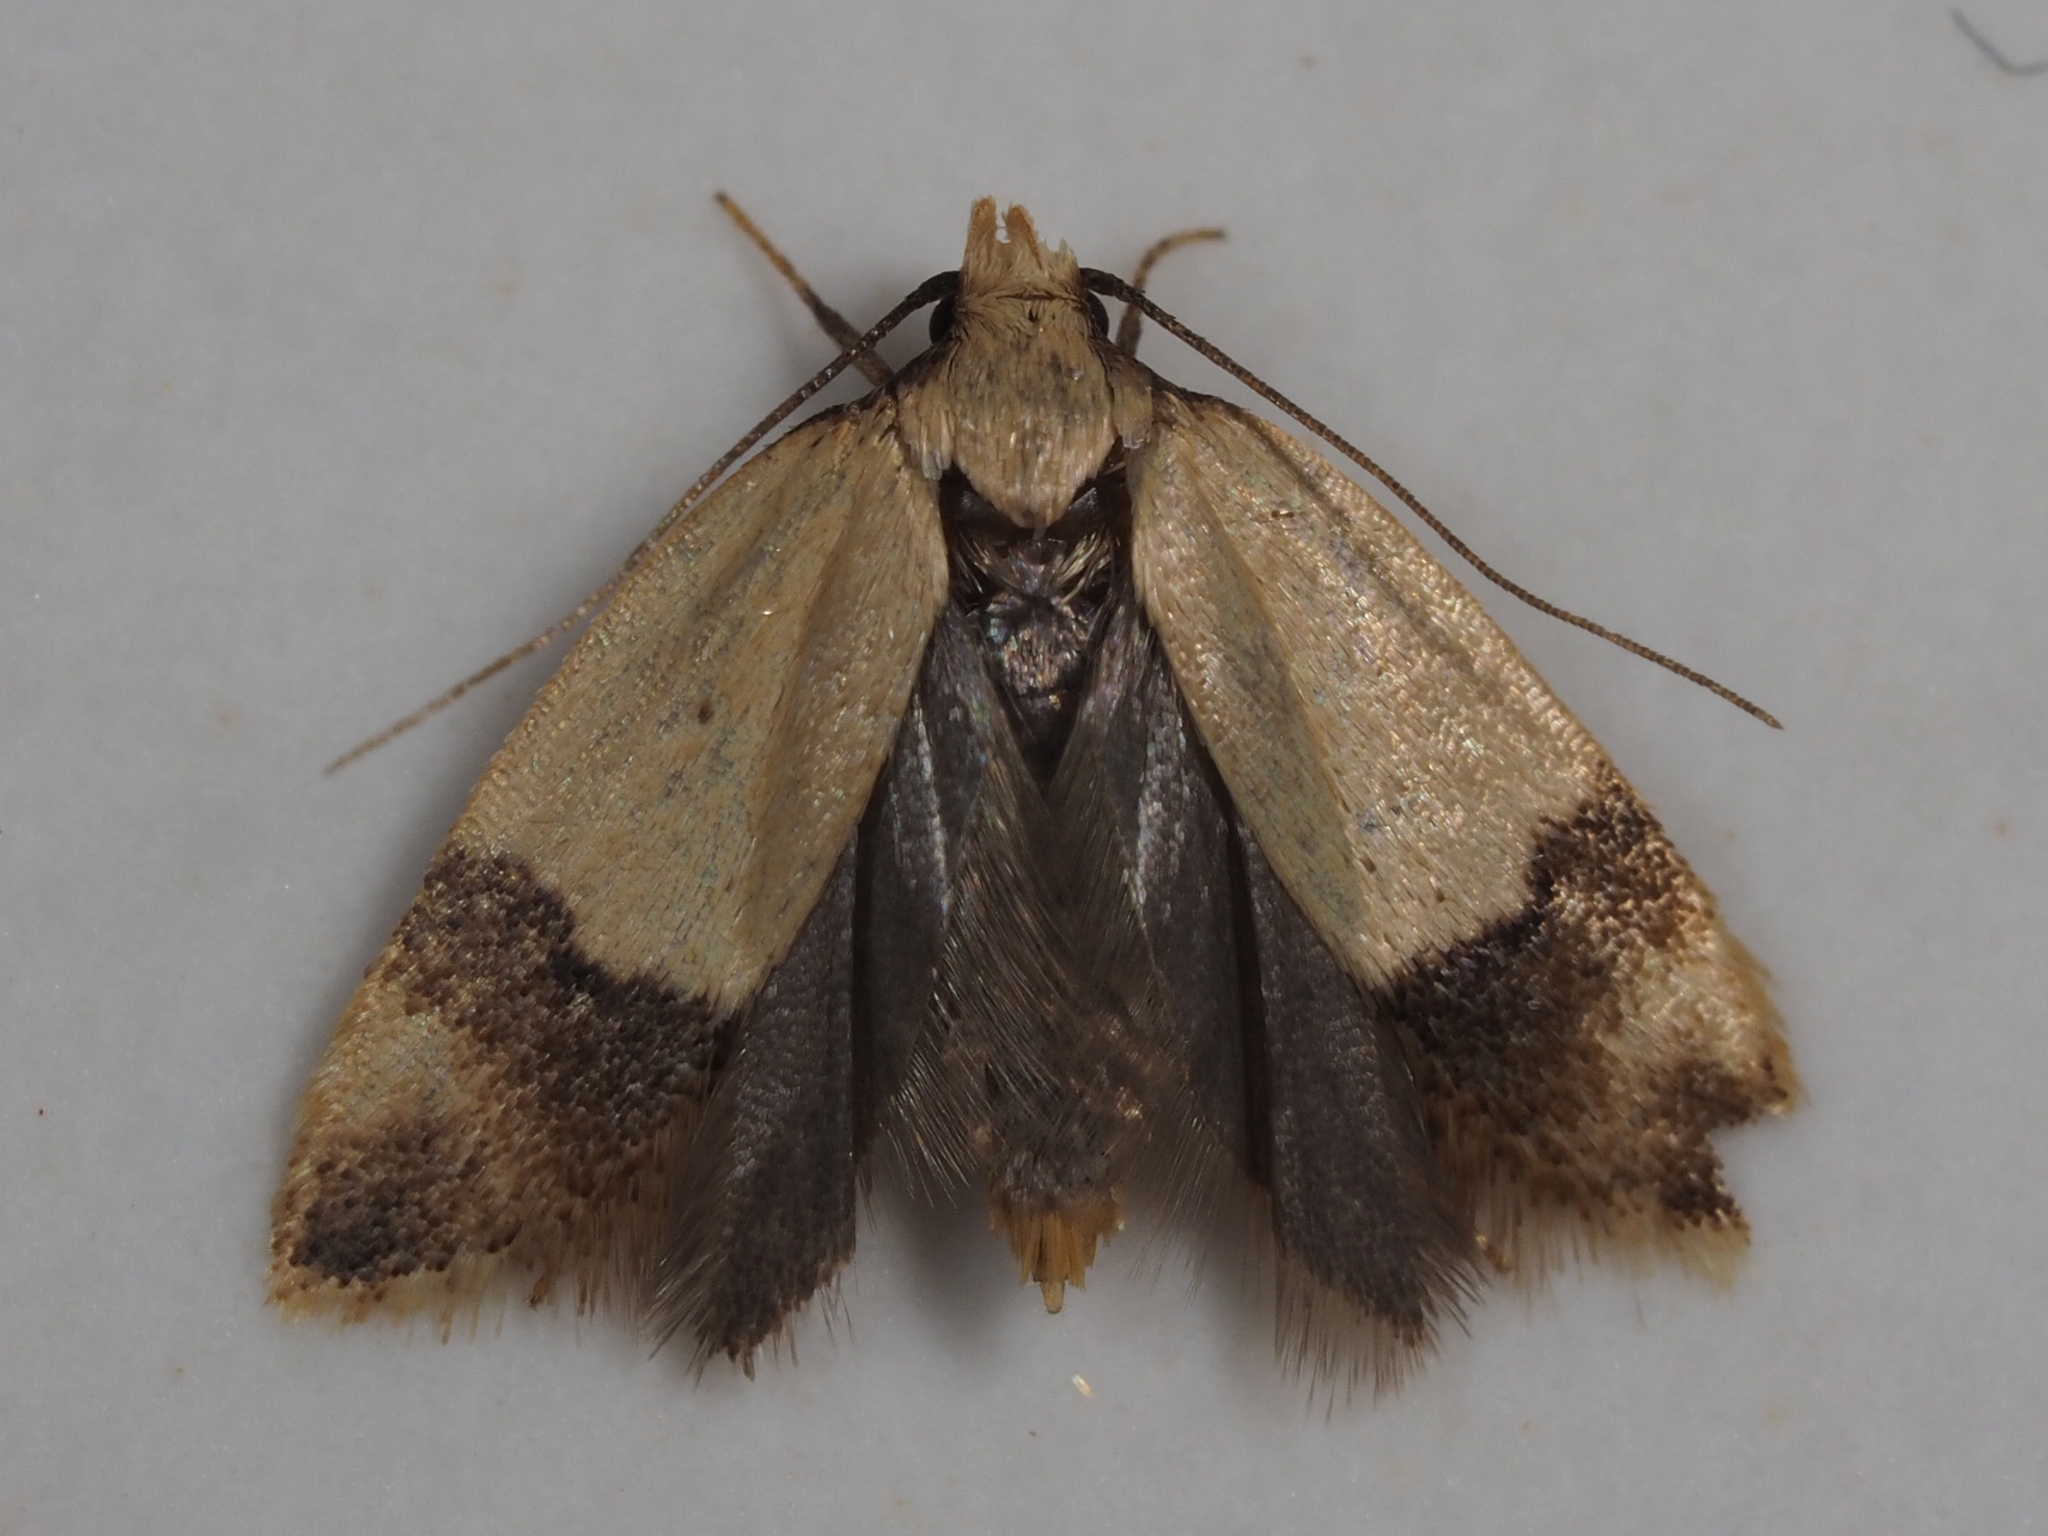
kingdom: Animalia
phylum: Arthropoda
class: Insecta
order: Lepidoptera
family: Peleopodidae
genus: Odites
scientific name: Odites kollarella
